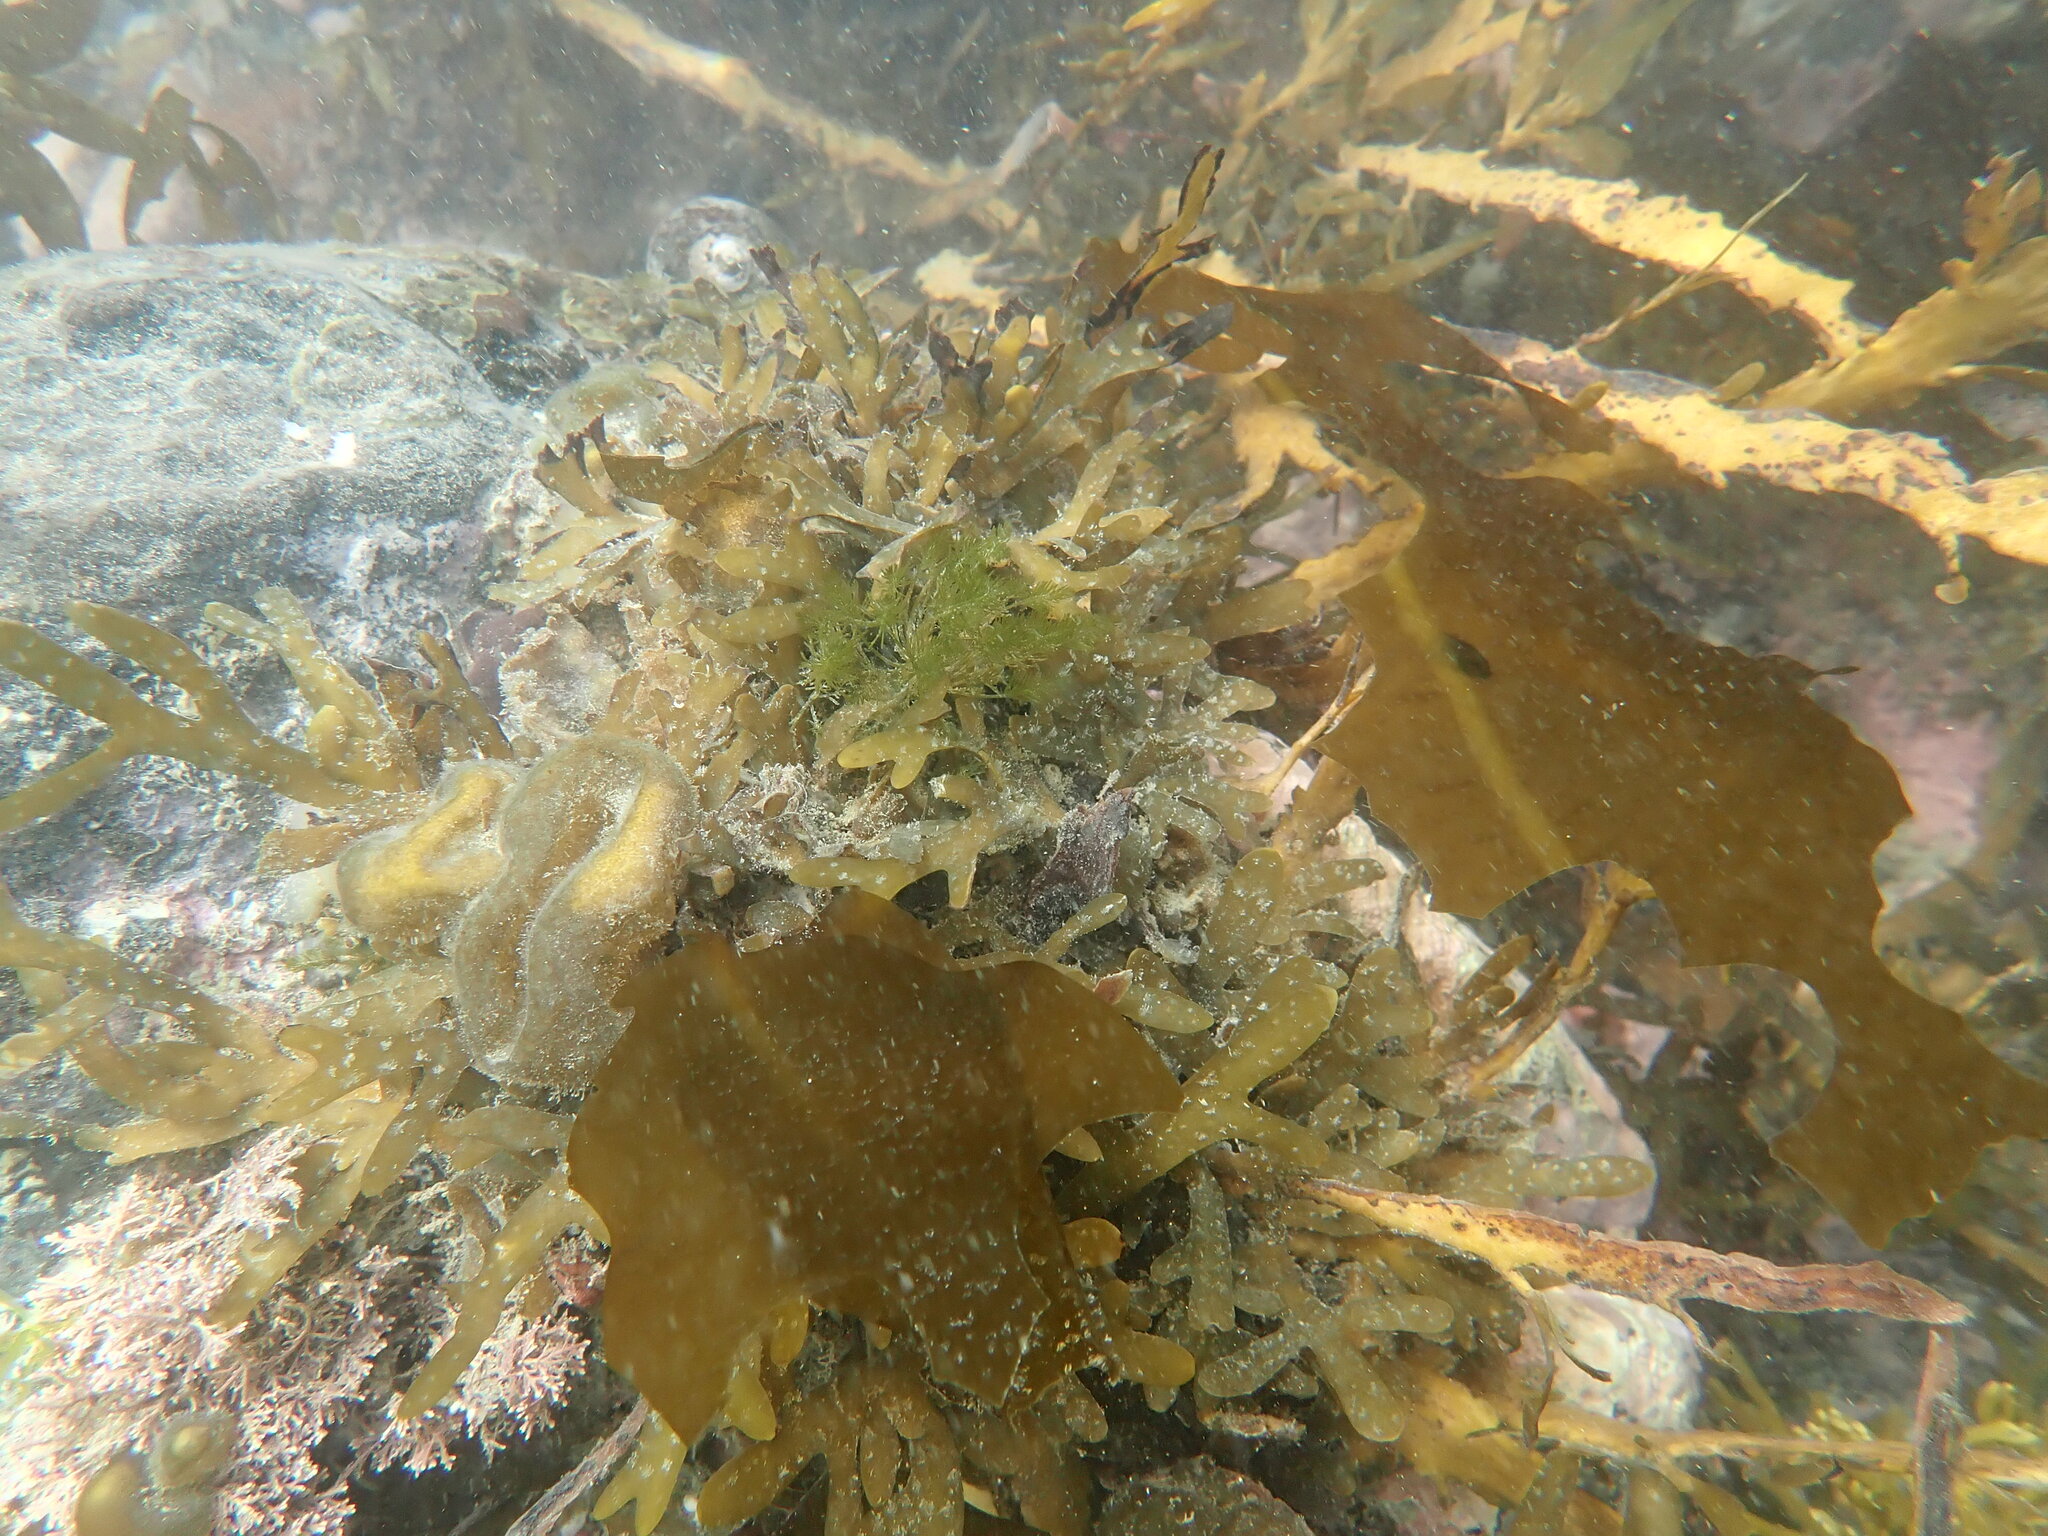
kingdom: Chromista
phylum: Ochrophyta
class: Phaeophyceae
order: Laminariales
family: Alariaceae
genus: Undaria
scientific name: Undaria pinnatifida
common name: Asian kelp
